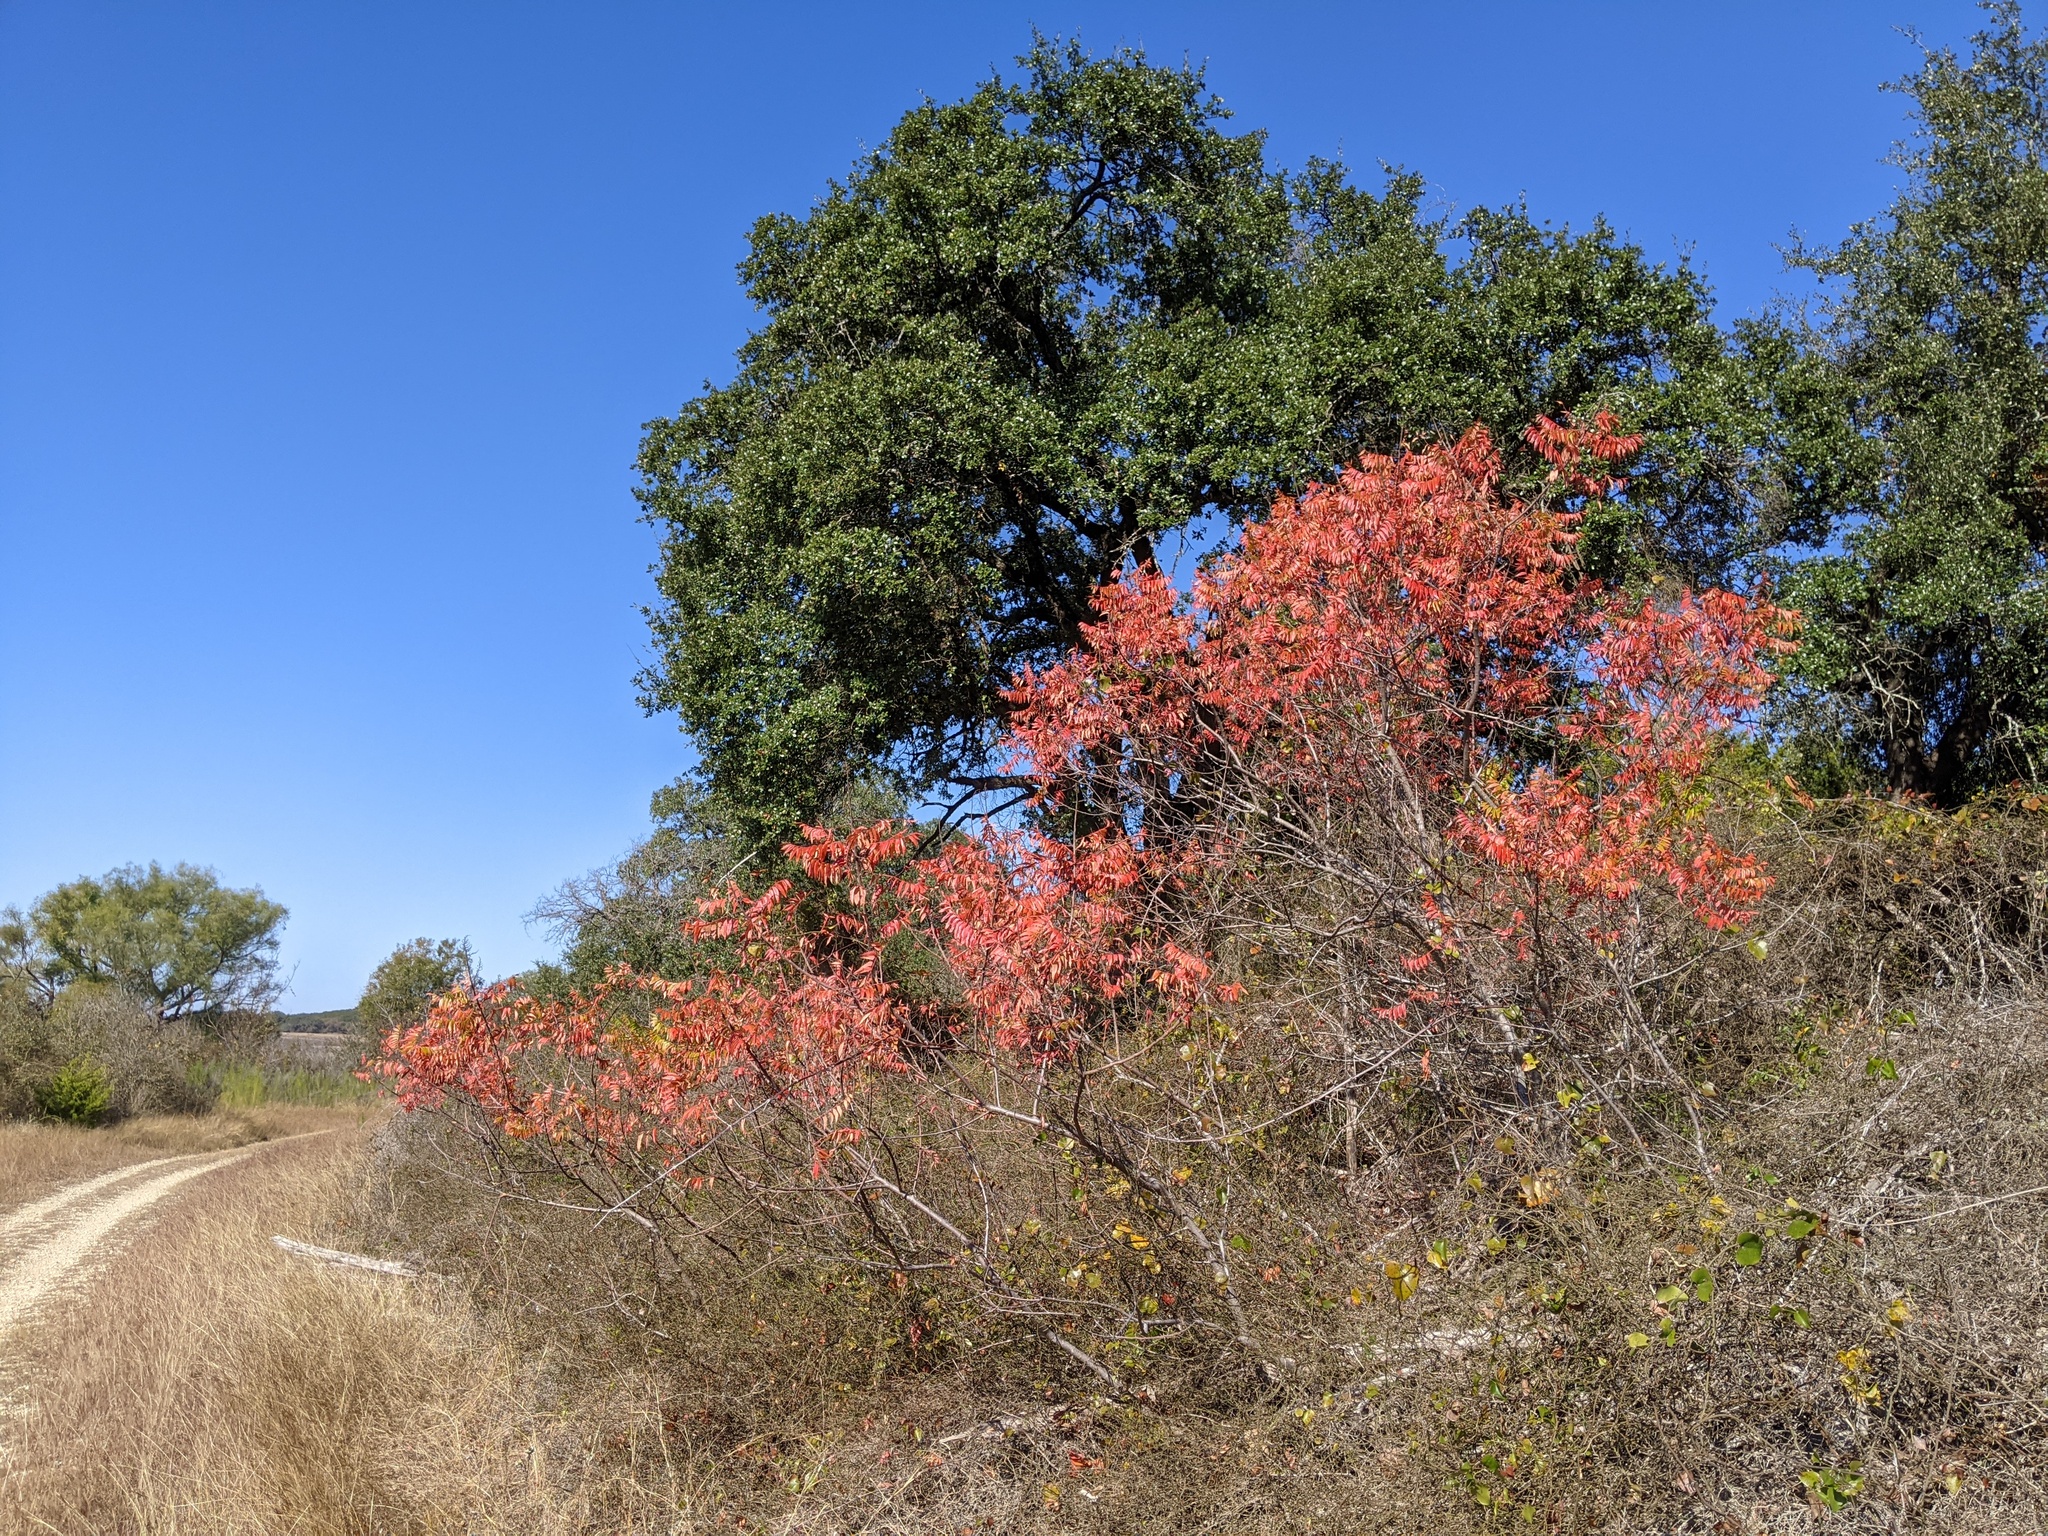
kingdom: Plantae
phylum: Tracheophyta
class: Magnoliopsida
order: Sapindales
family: Anacardiaceae
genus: Rhus
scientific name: Rhus lanceolata
